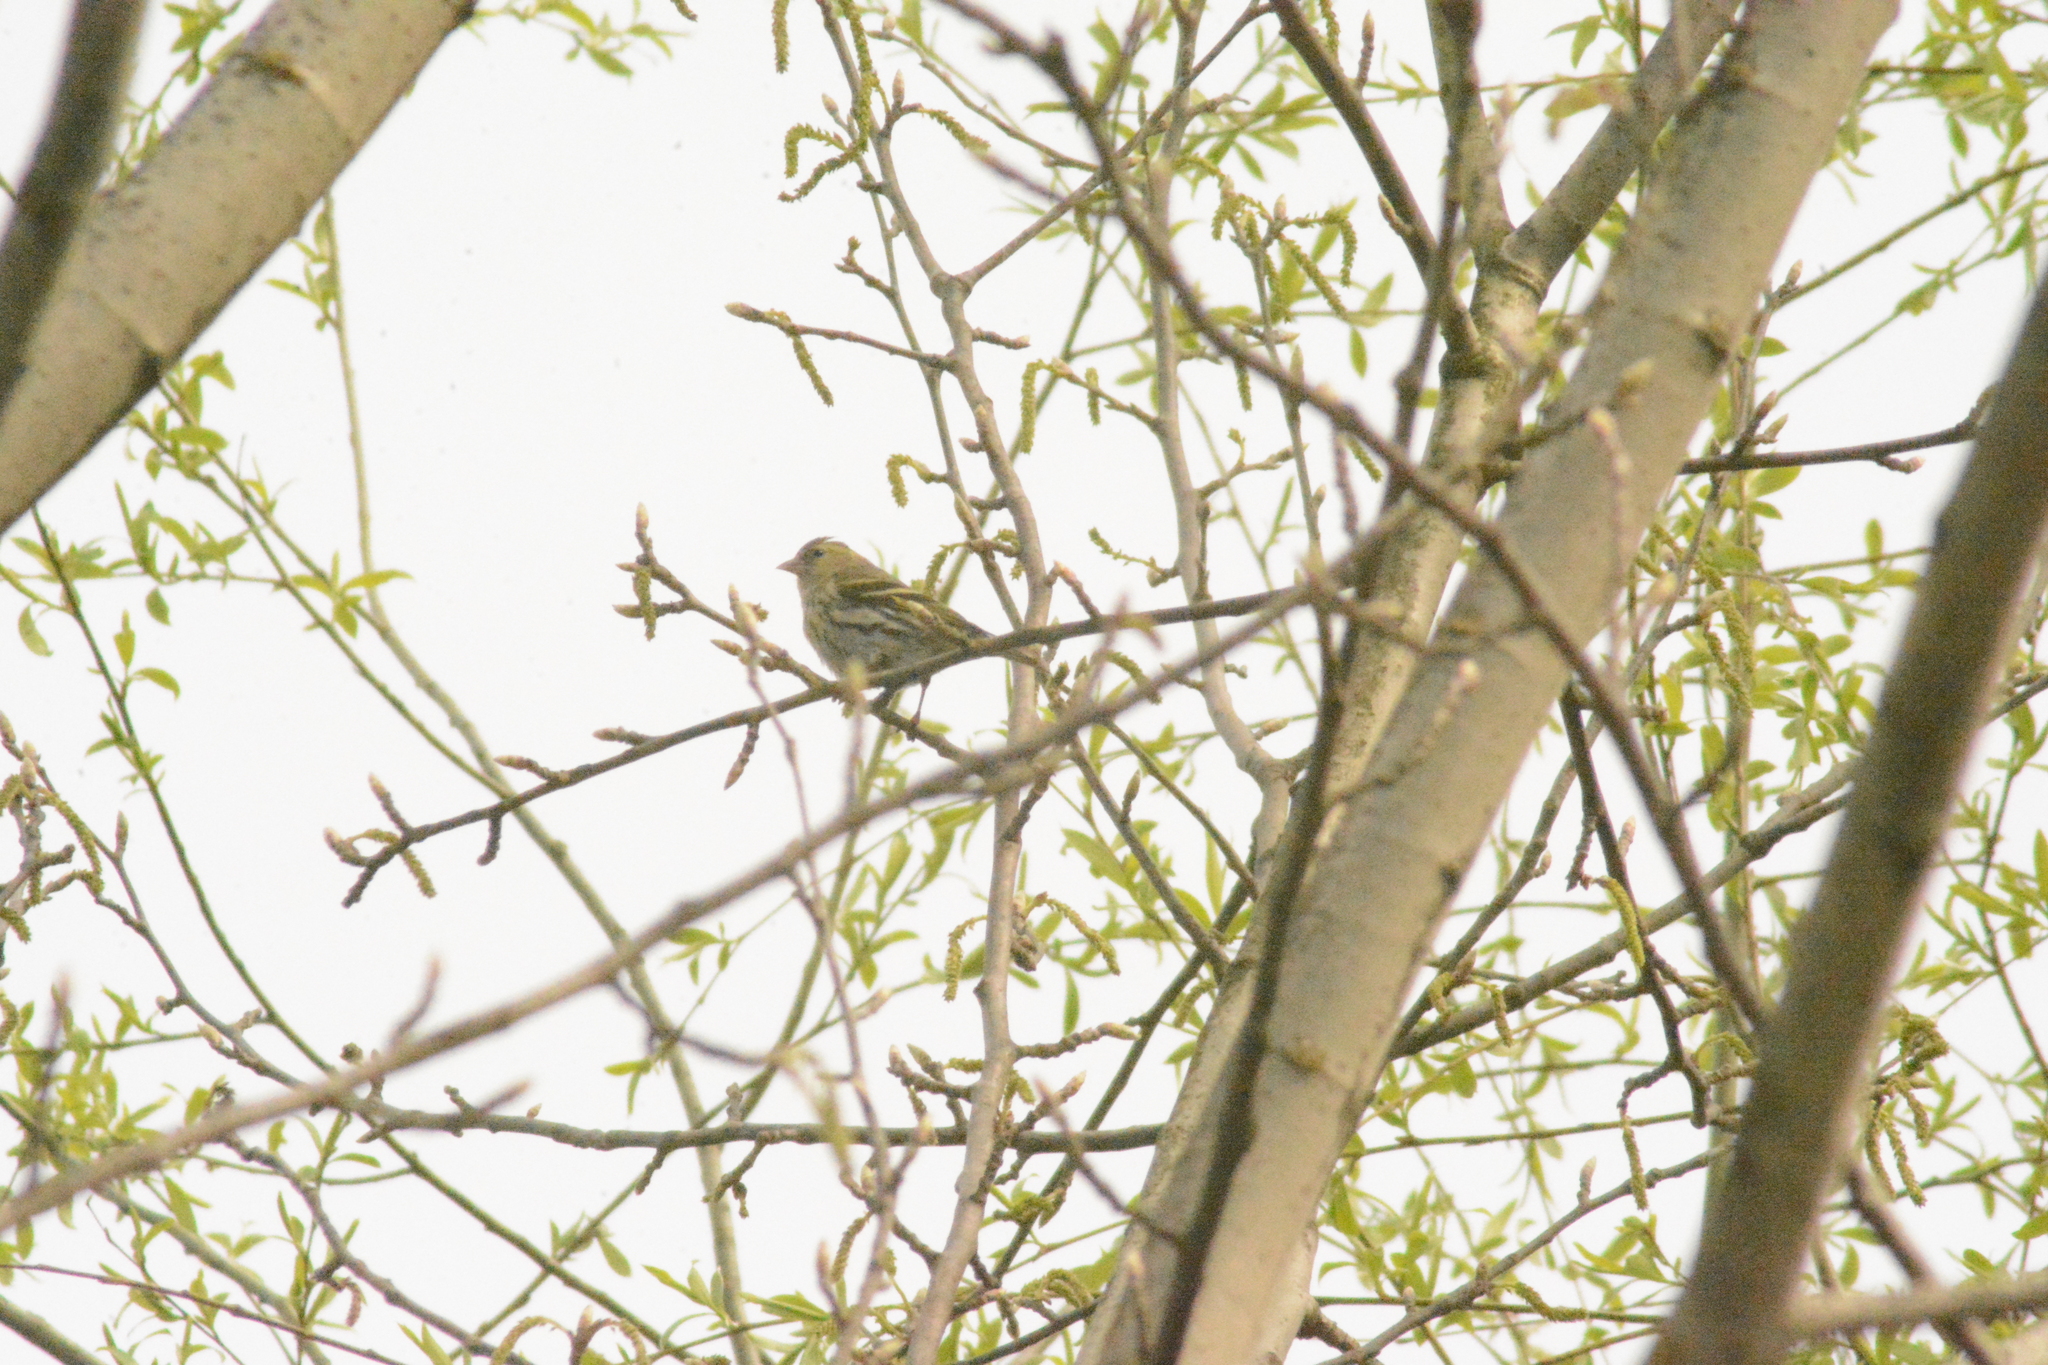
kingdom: Animalia
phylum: Chordata
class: Aves
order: Passeriformes
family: Fringillidae
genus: Spinus
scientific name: Spinus spinus
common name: Eurasian siskin
